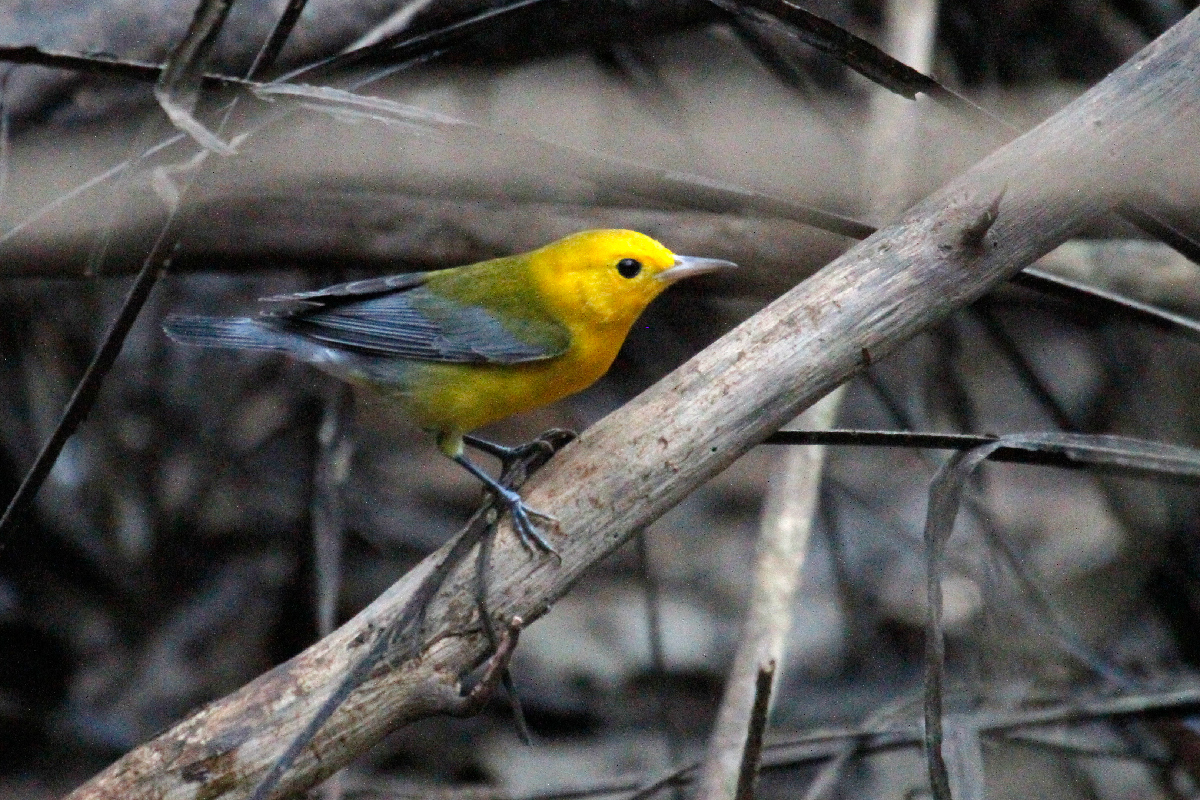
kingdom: Animalia
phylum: Chordata
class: Aves
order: Passeriformes
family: Parulidae
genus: Protonotaria
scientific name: Protonotaria citrea
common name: Prothonotary warbler
